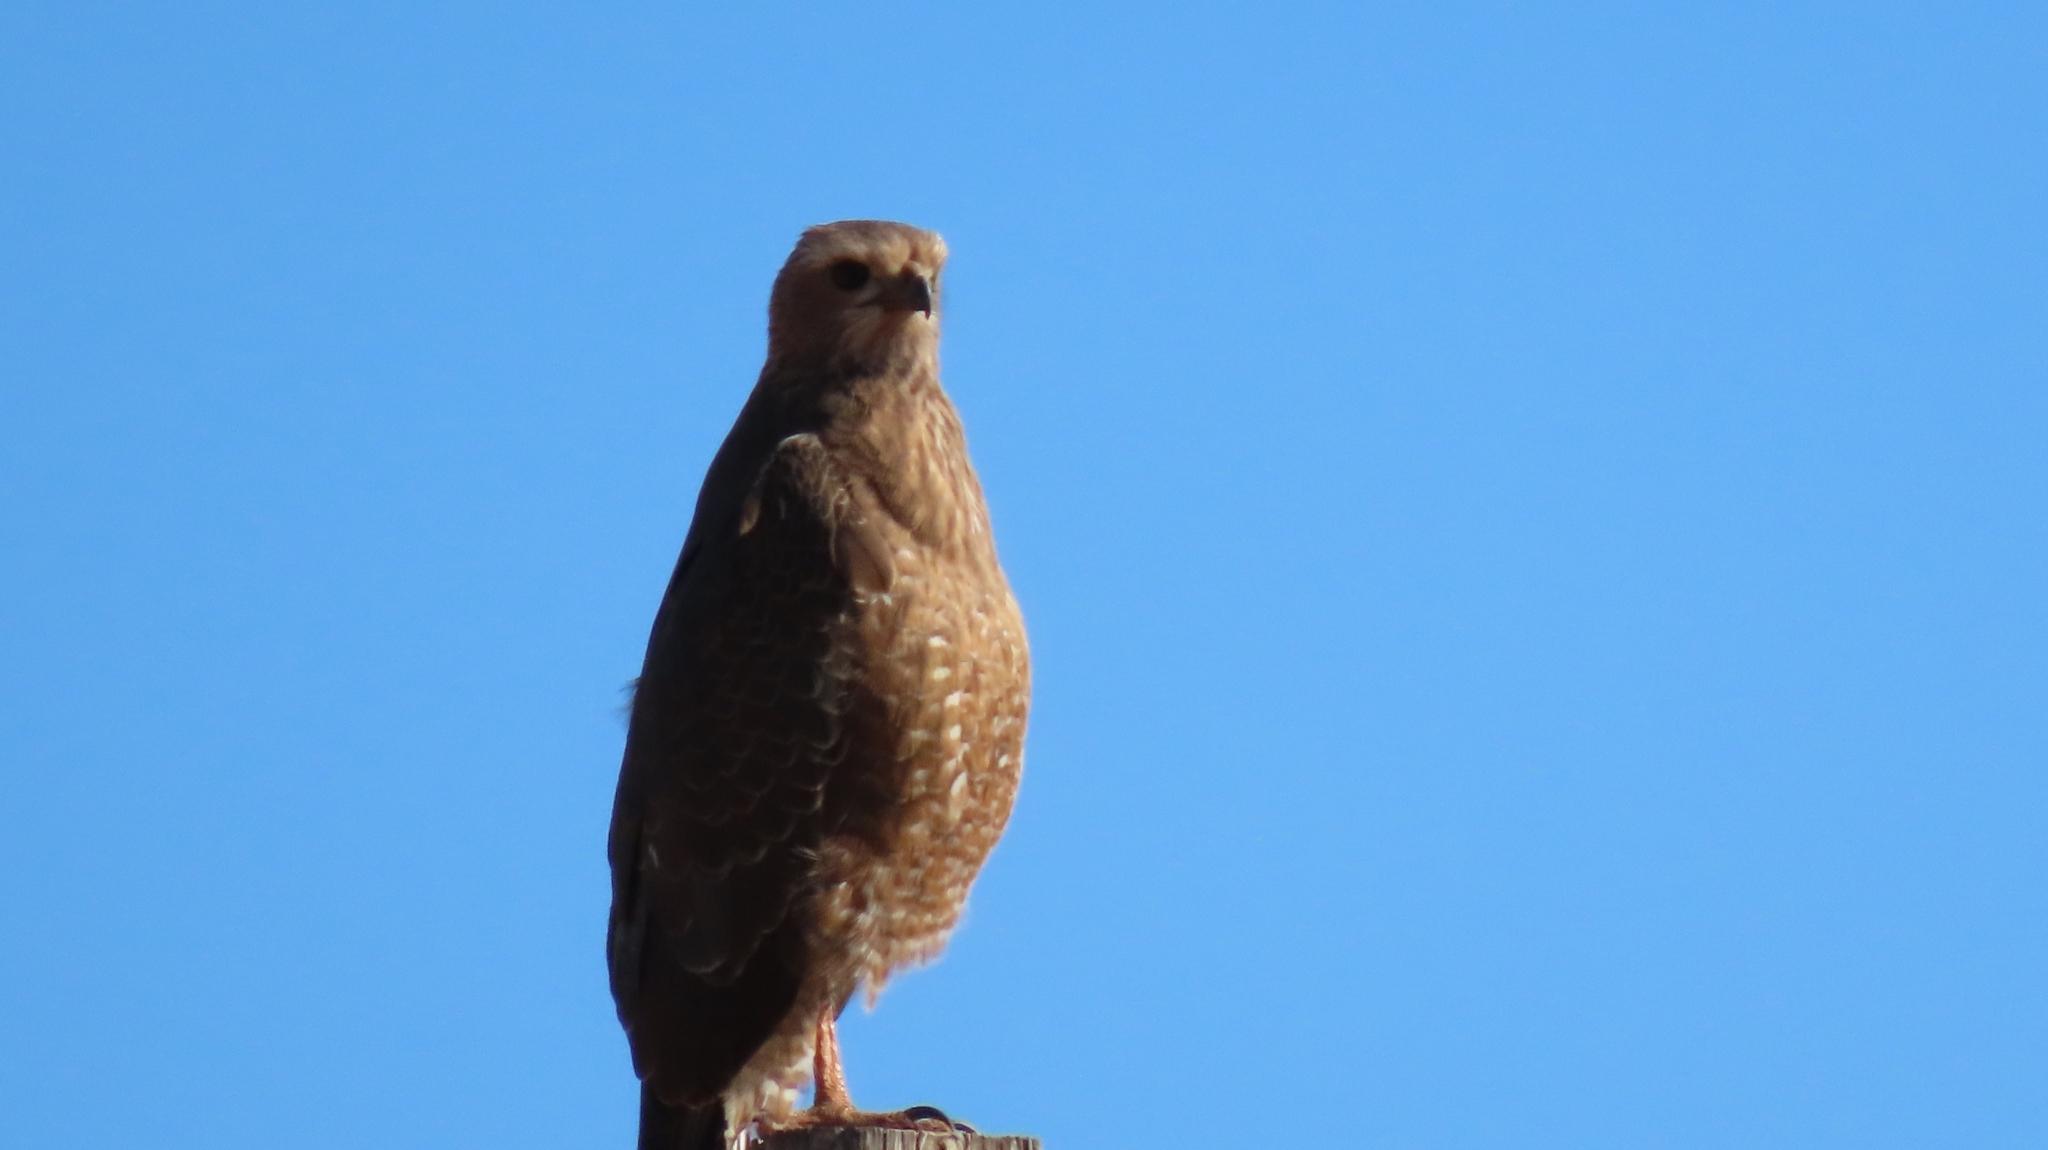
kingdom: Animalia
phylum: Chordata
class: Aves
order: Accipitriformes
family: Accipitridae
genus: Melierax
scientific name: Melierax canorus
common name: Pale chanting-goshawk
